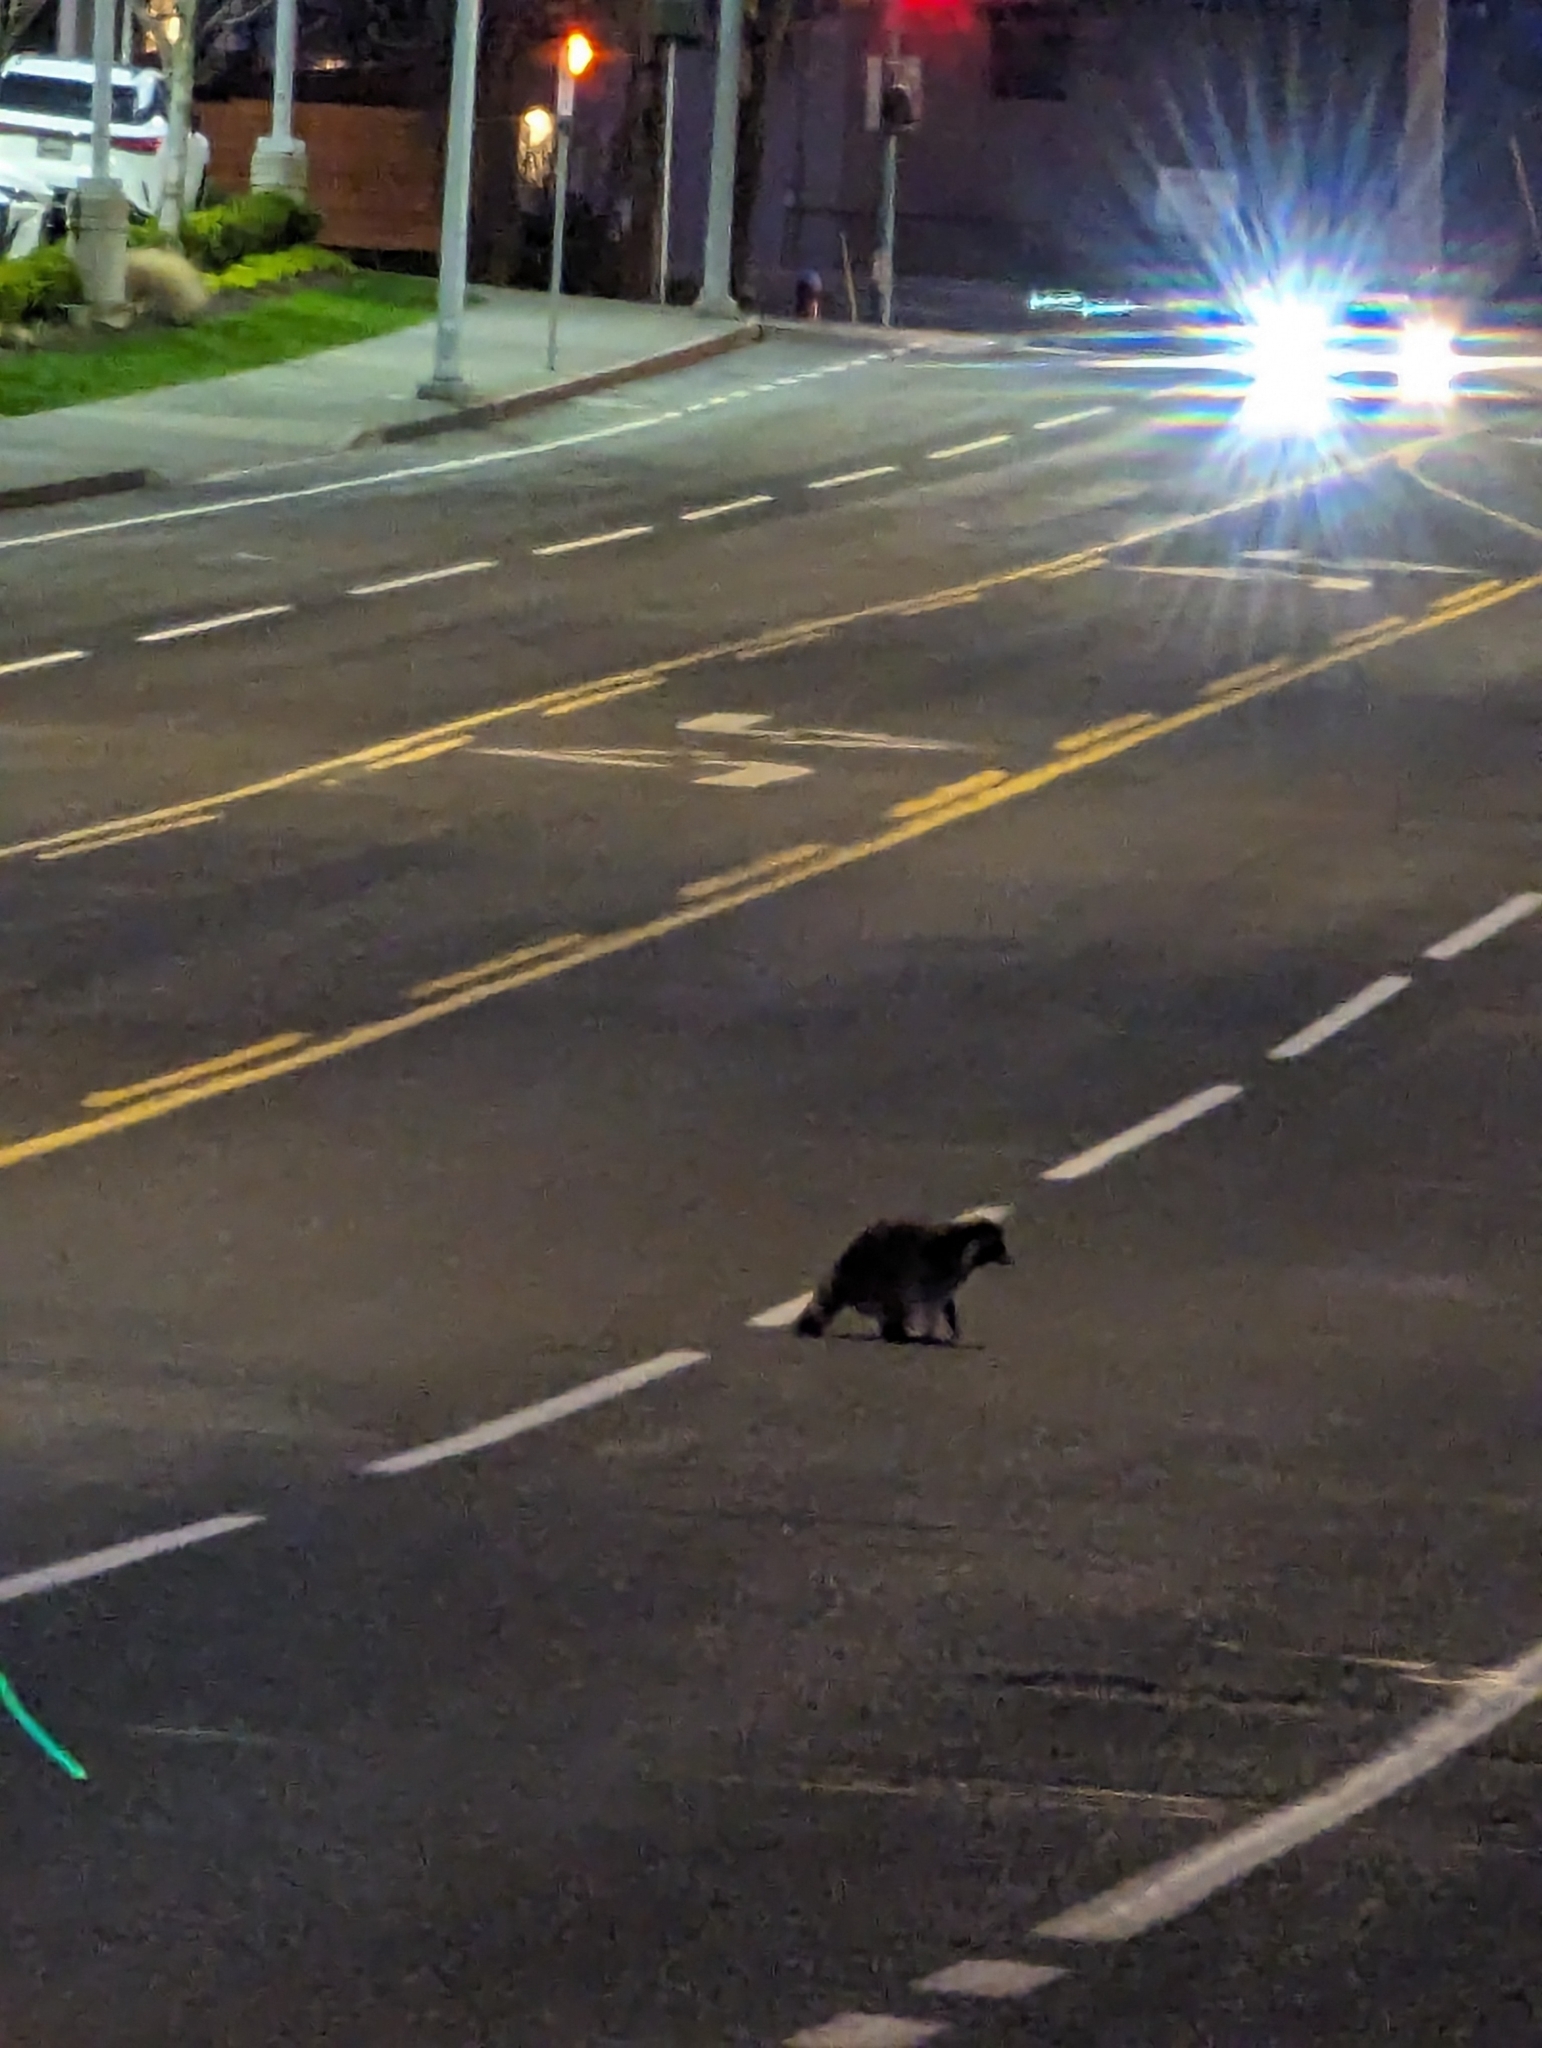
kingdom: Animalia
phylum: Chordata
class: Mammalia
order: Carnivora
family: Procyonidae
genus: Procyon
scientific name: Procyon lotor
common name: Raccoon
